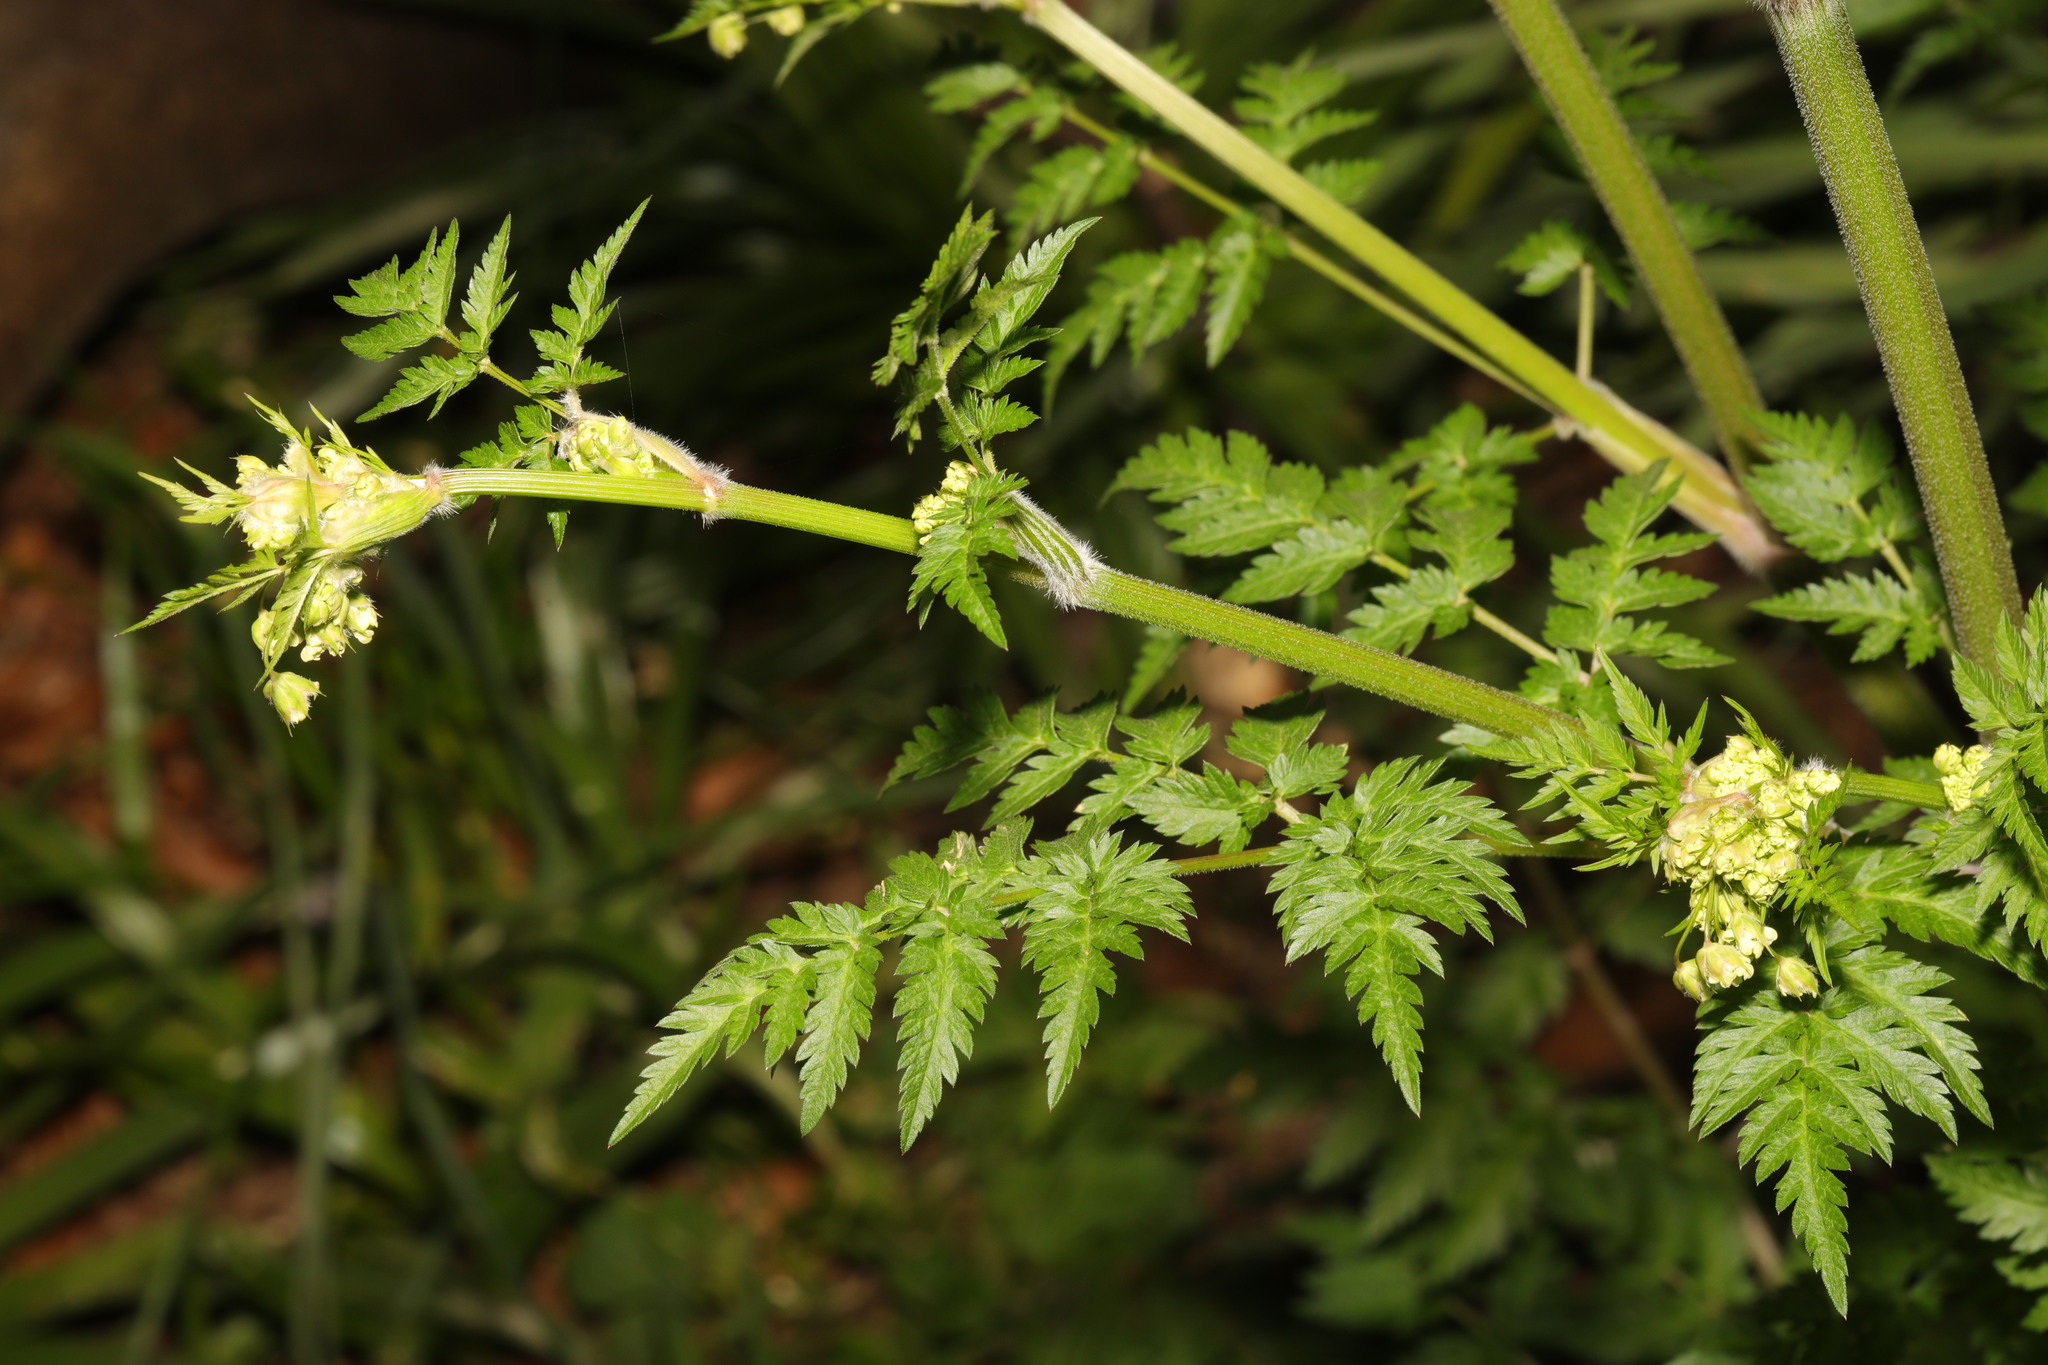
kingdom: Plantae
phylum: Tracheophyta
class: Magnoliopsida
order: Apiales
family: Apiaceae
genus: Anthriscus
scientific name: Anthriscus sylvestris
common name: Cow parsley
